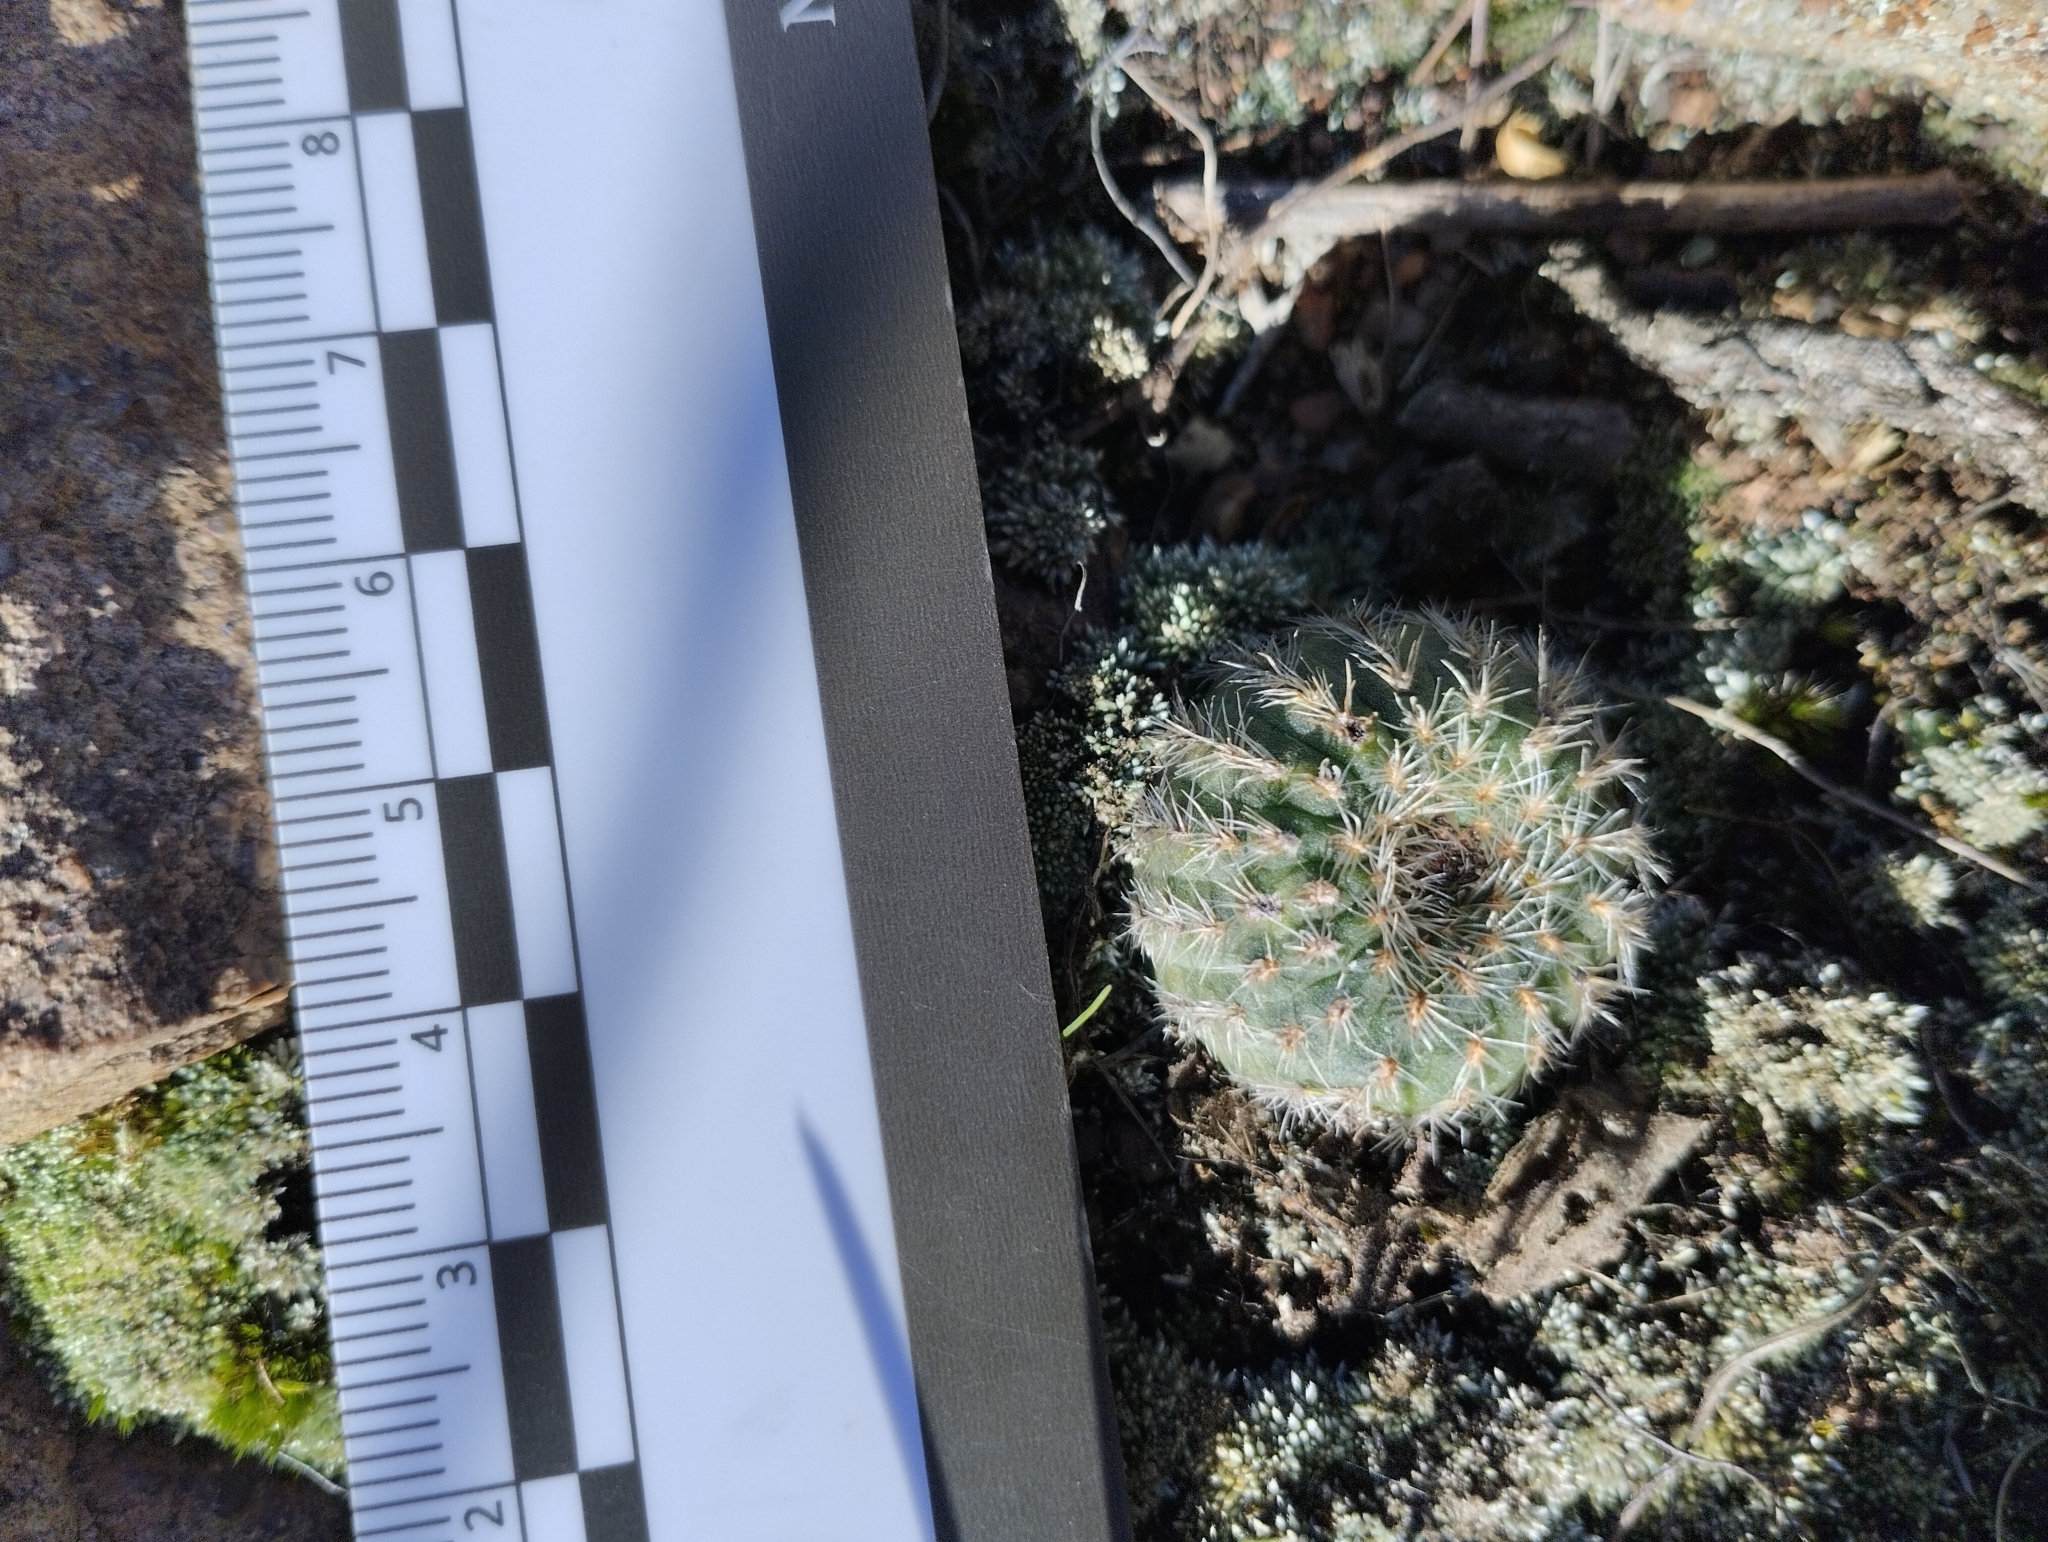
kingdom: Plantae
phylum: Tracheophyta
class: Magnoliopsida
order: Caryophyllales
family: Cactaceae
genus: Frailea
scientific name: Frailea pygmaea
